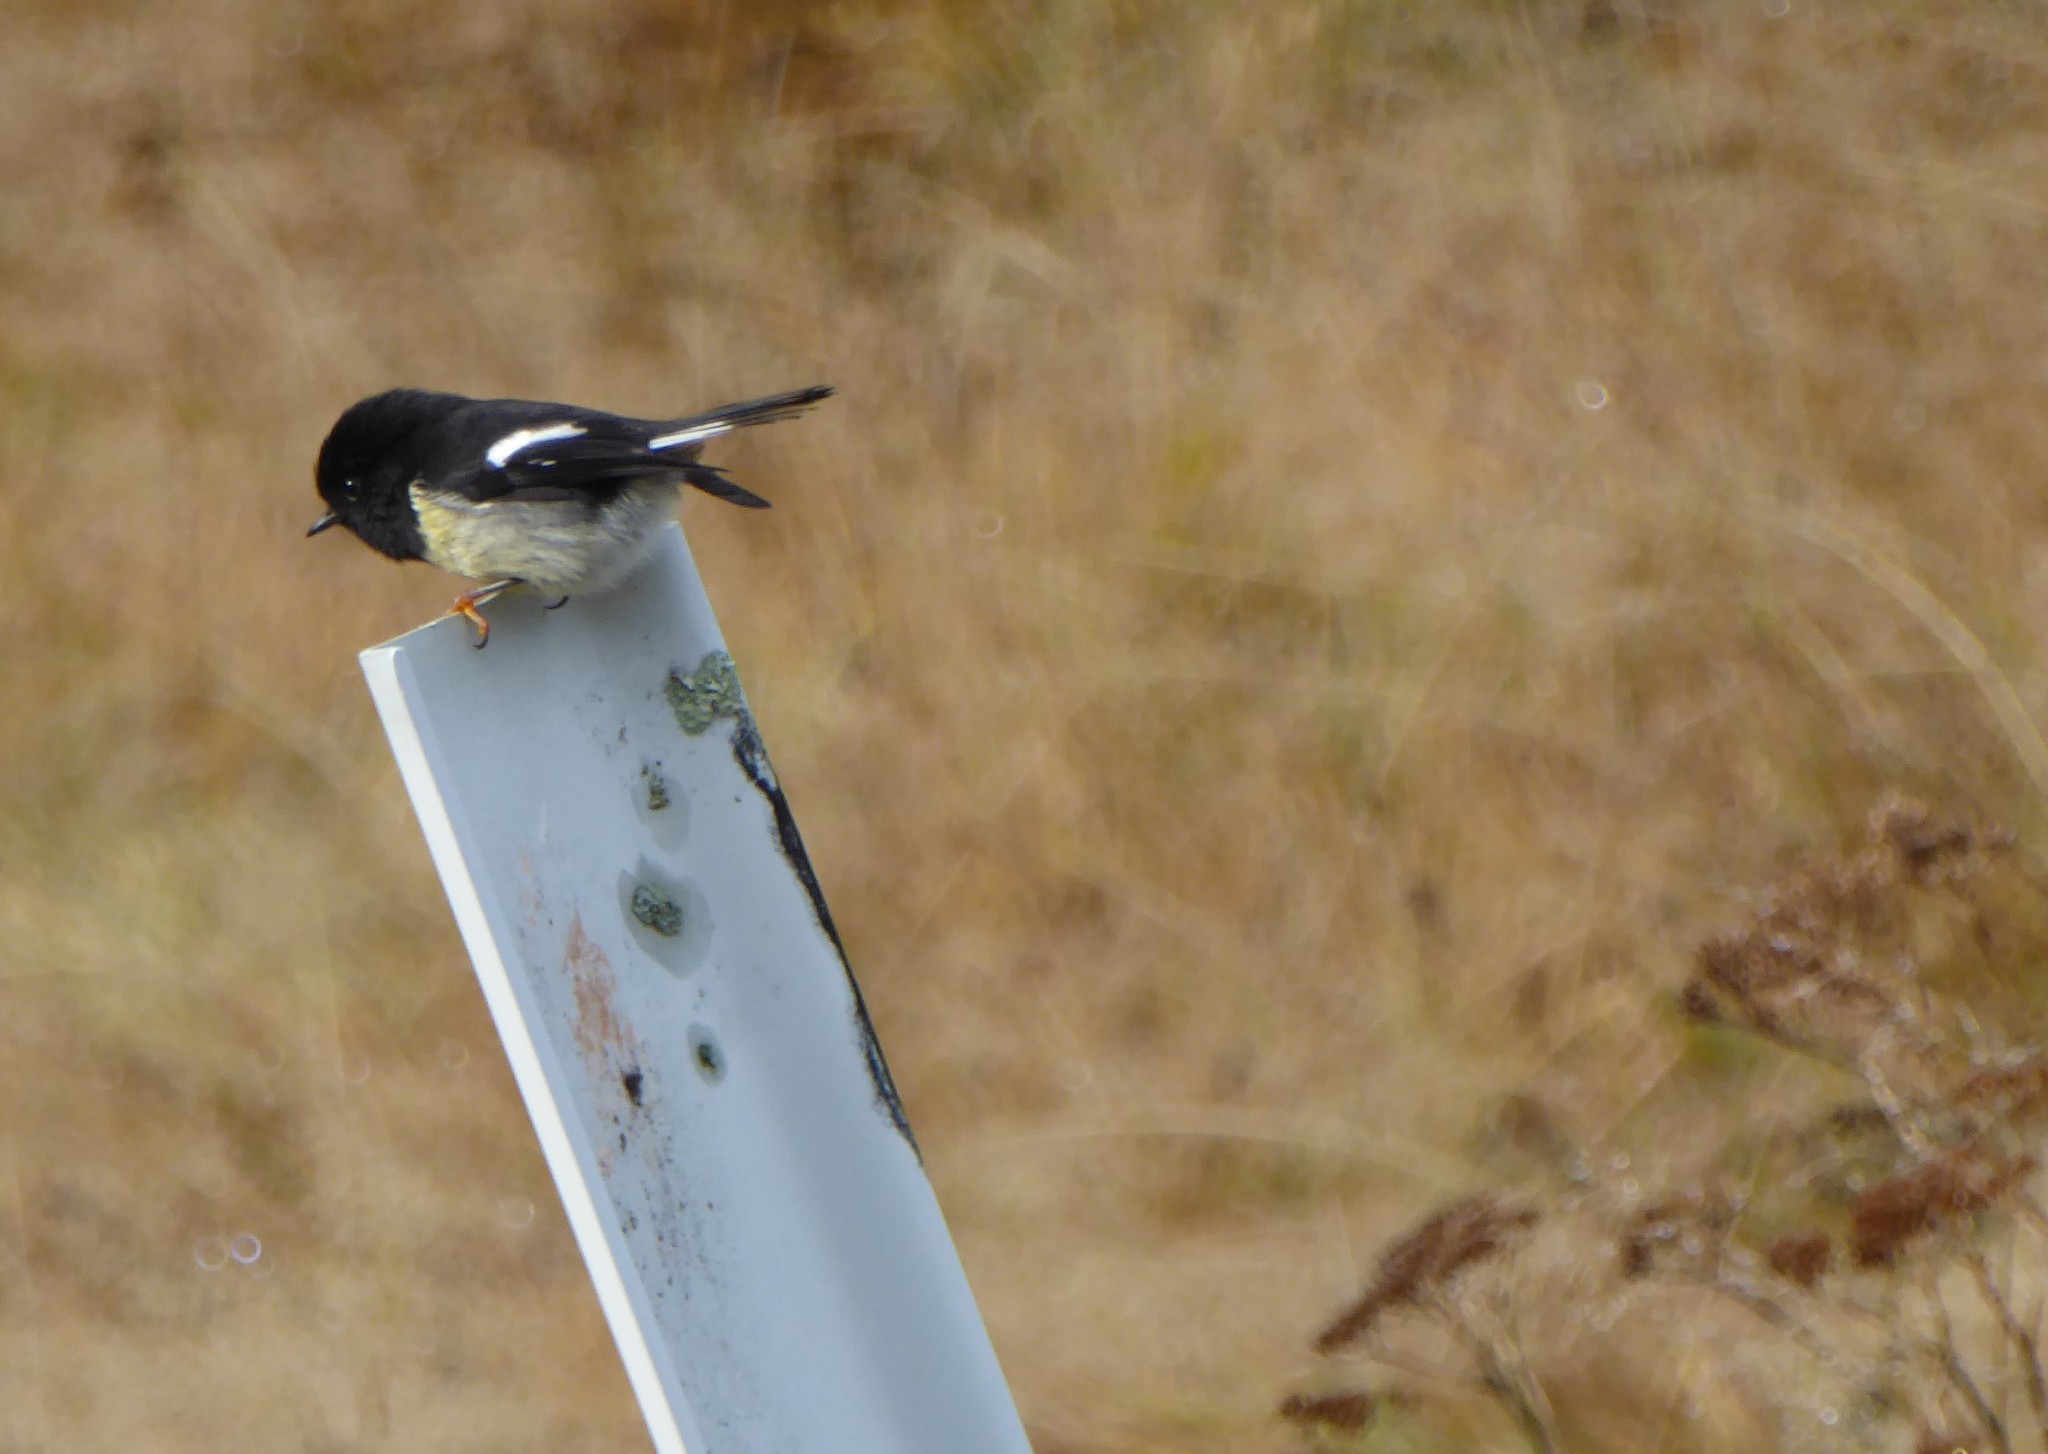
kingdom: Animalia
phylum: Chordata
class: Aves
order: Passeriformes
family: Petroicidae
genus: Petroica
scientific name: Petroica macrocephala
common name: Tomtit
